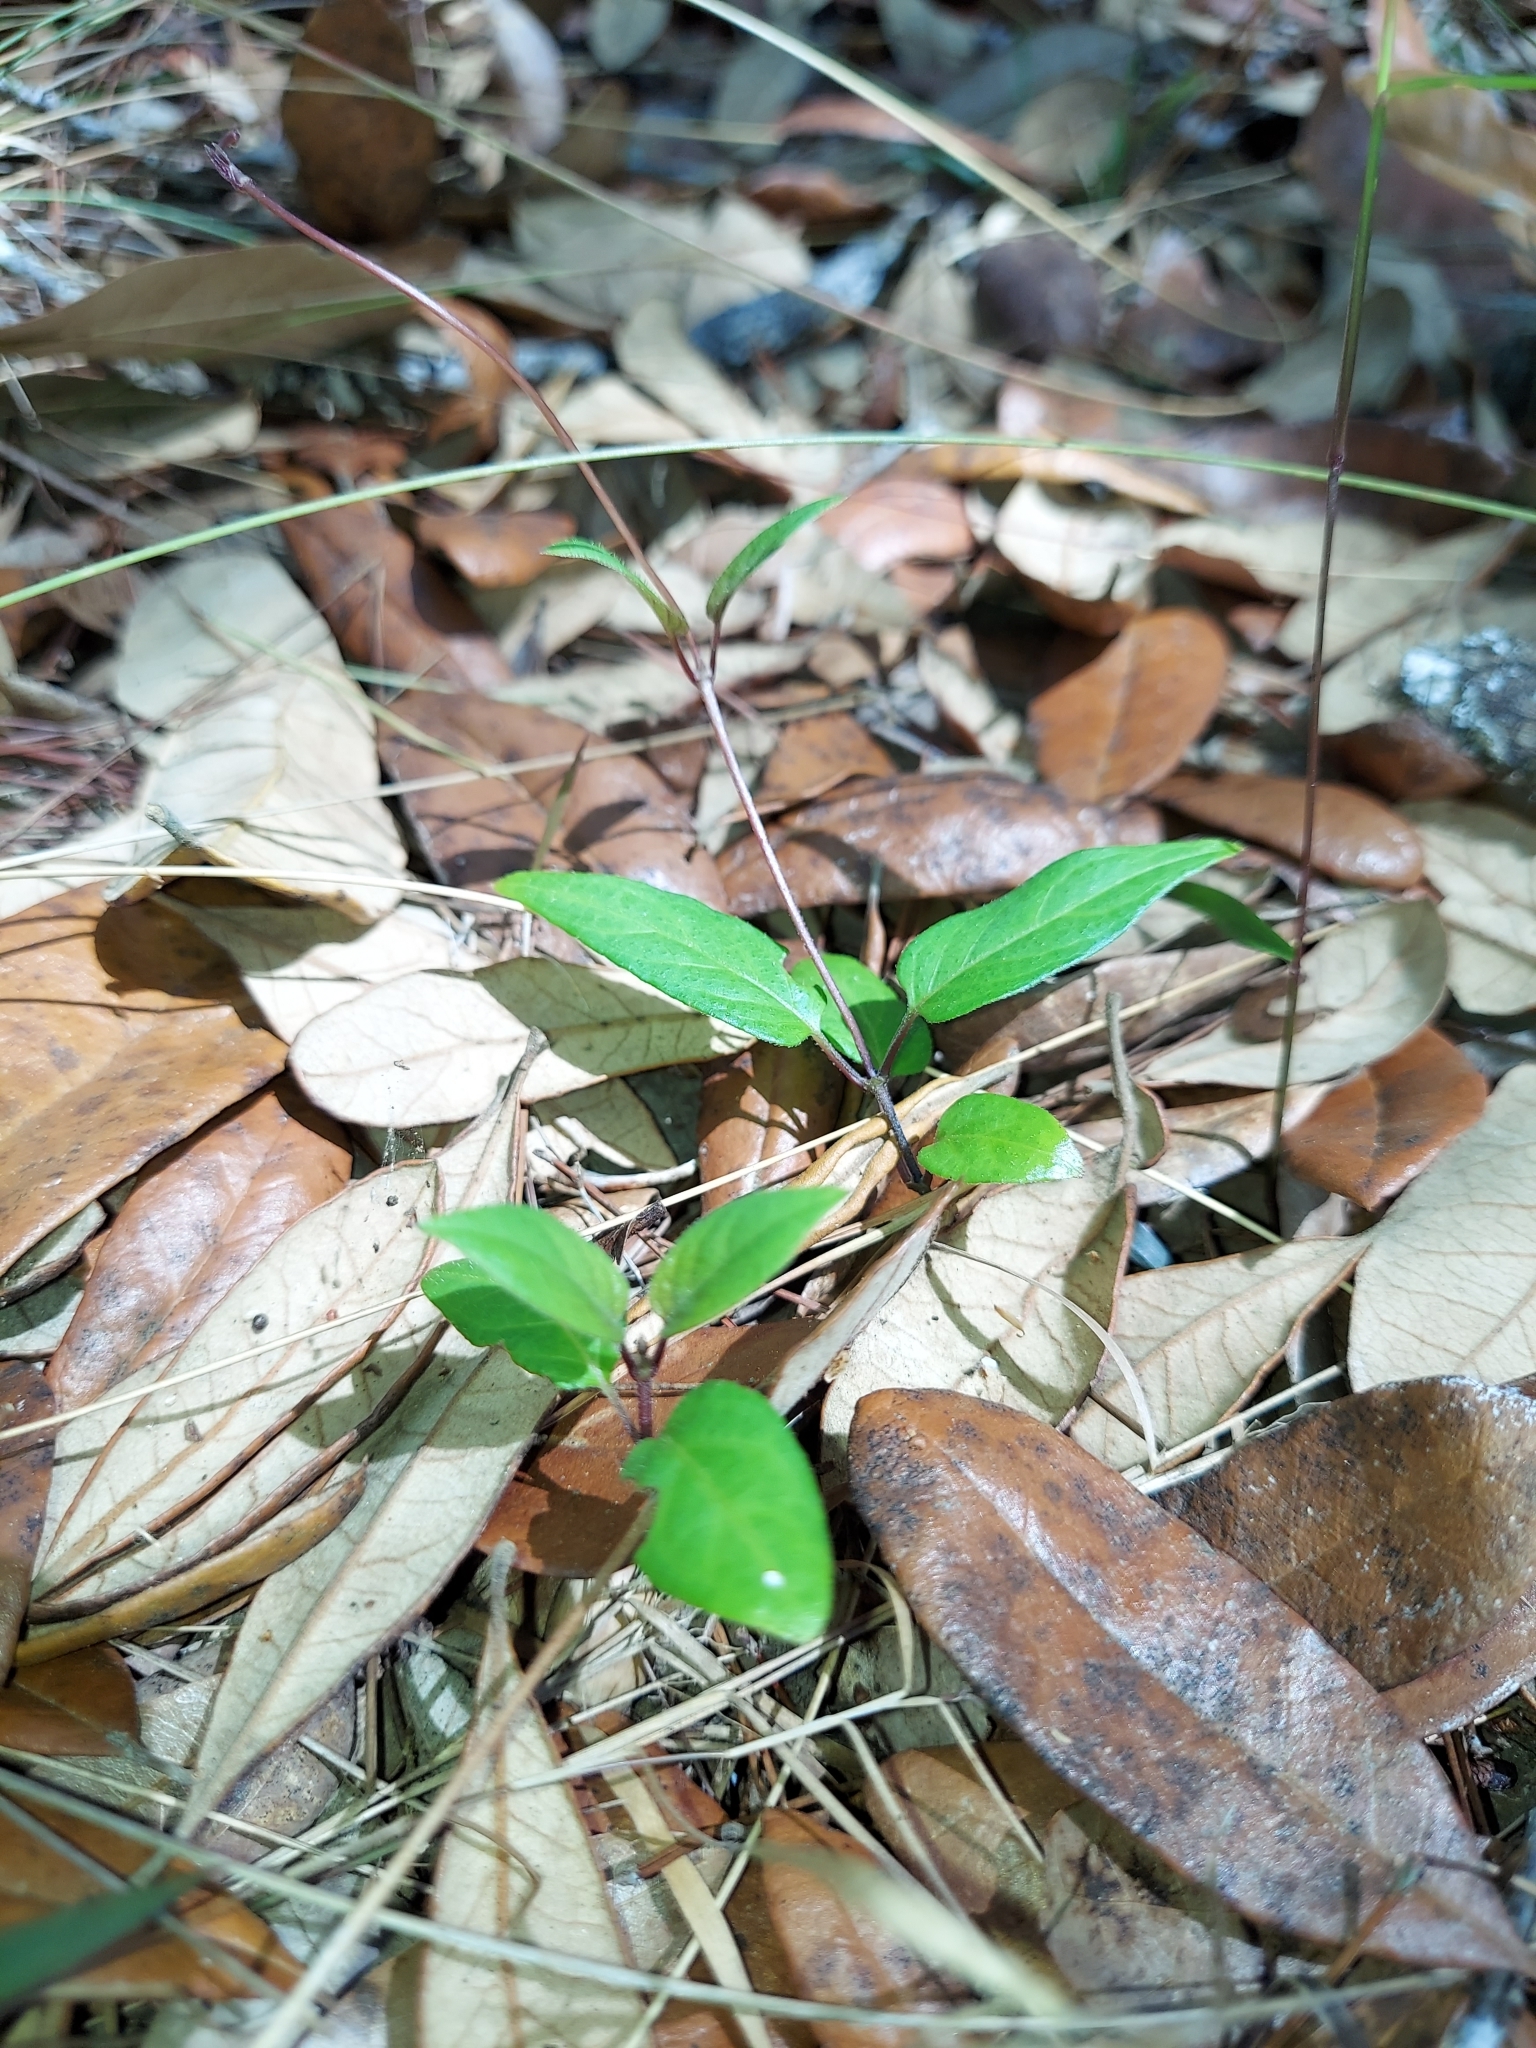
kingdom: Plantae
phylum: Tracheophyta
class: Magnoliopsida
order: Gentianales
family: Rubiaceae
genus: Paederia
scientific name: Paederia foetida
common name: Stinkvine
